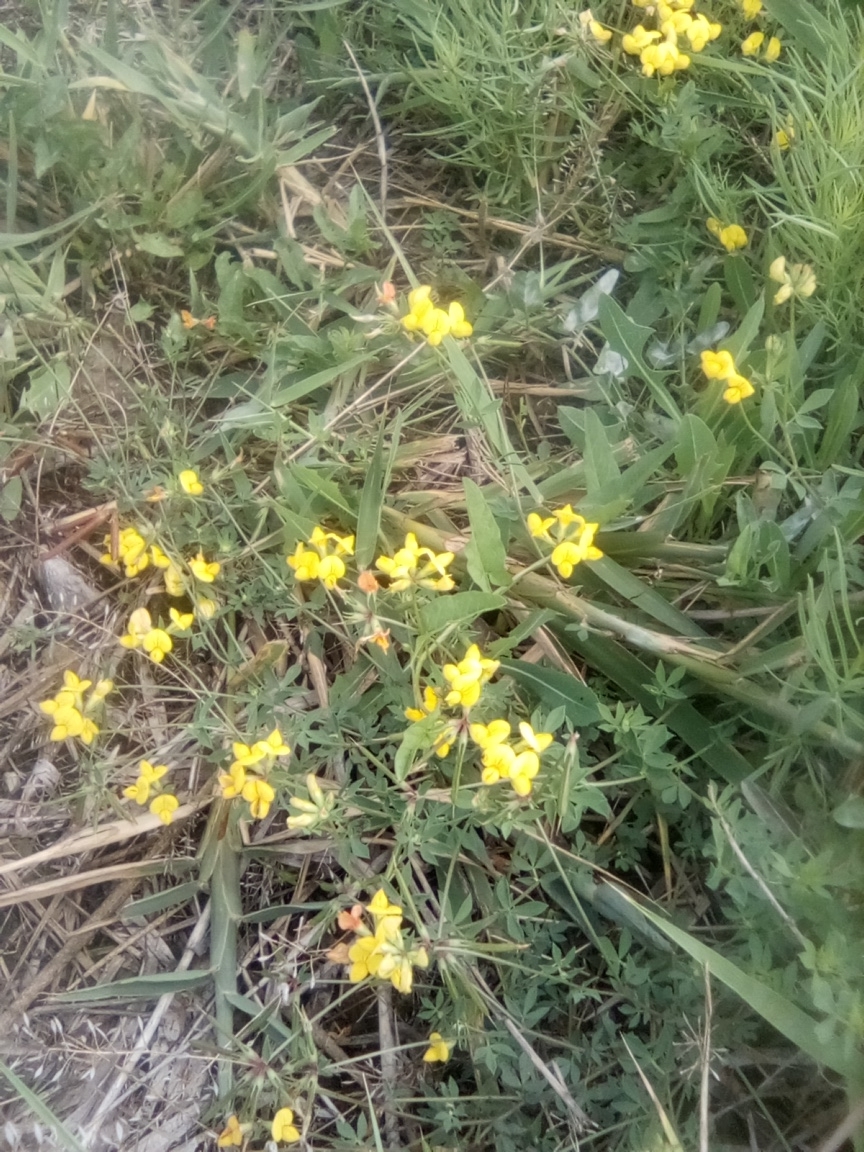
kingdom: Plantae
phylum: Tracheophyta
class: Magnoliopsida
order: Fabales
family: Fabaceae
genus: Lotus
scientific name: Lotus corniculatus
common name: Common bird's-foot-trefoil
